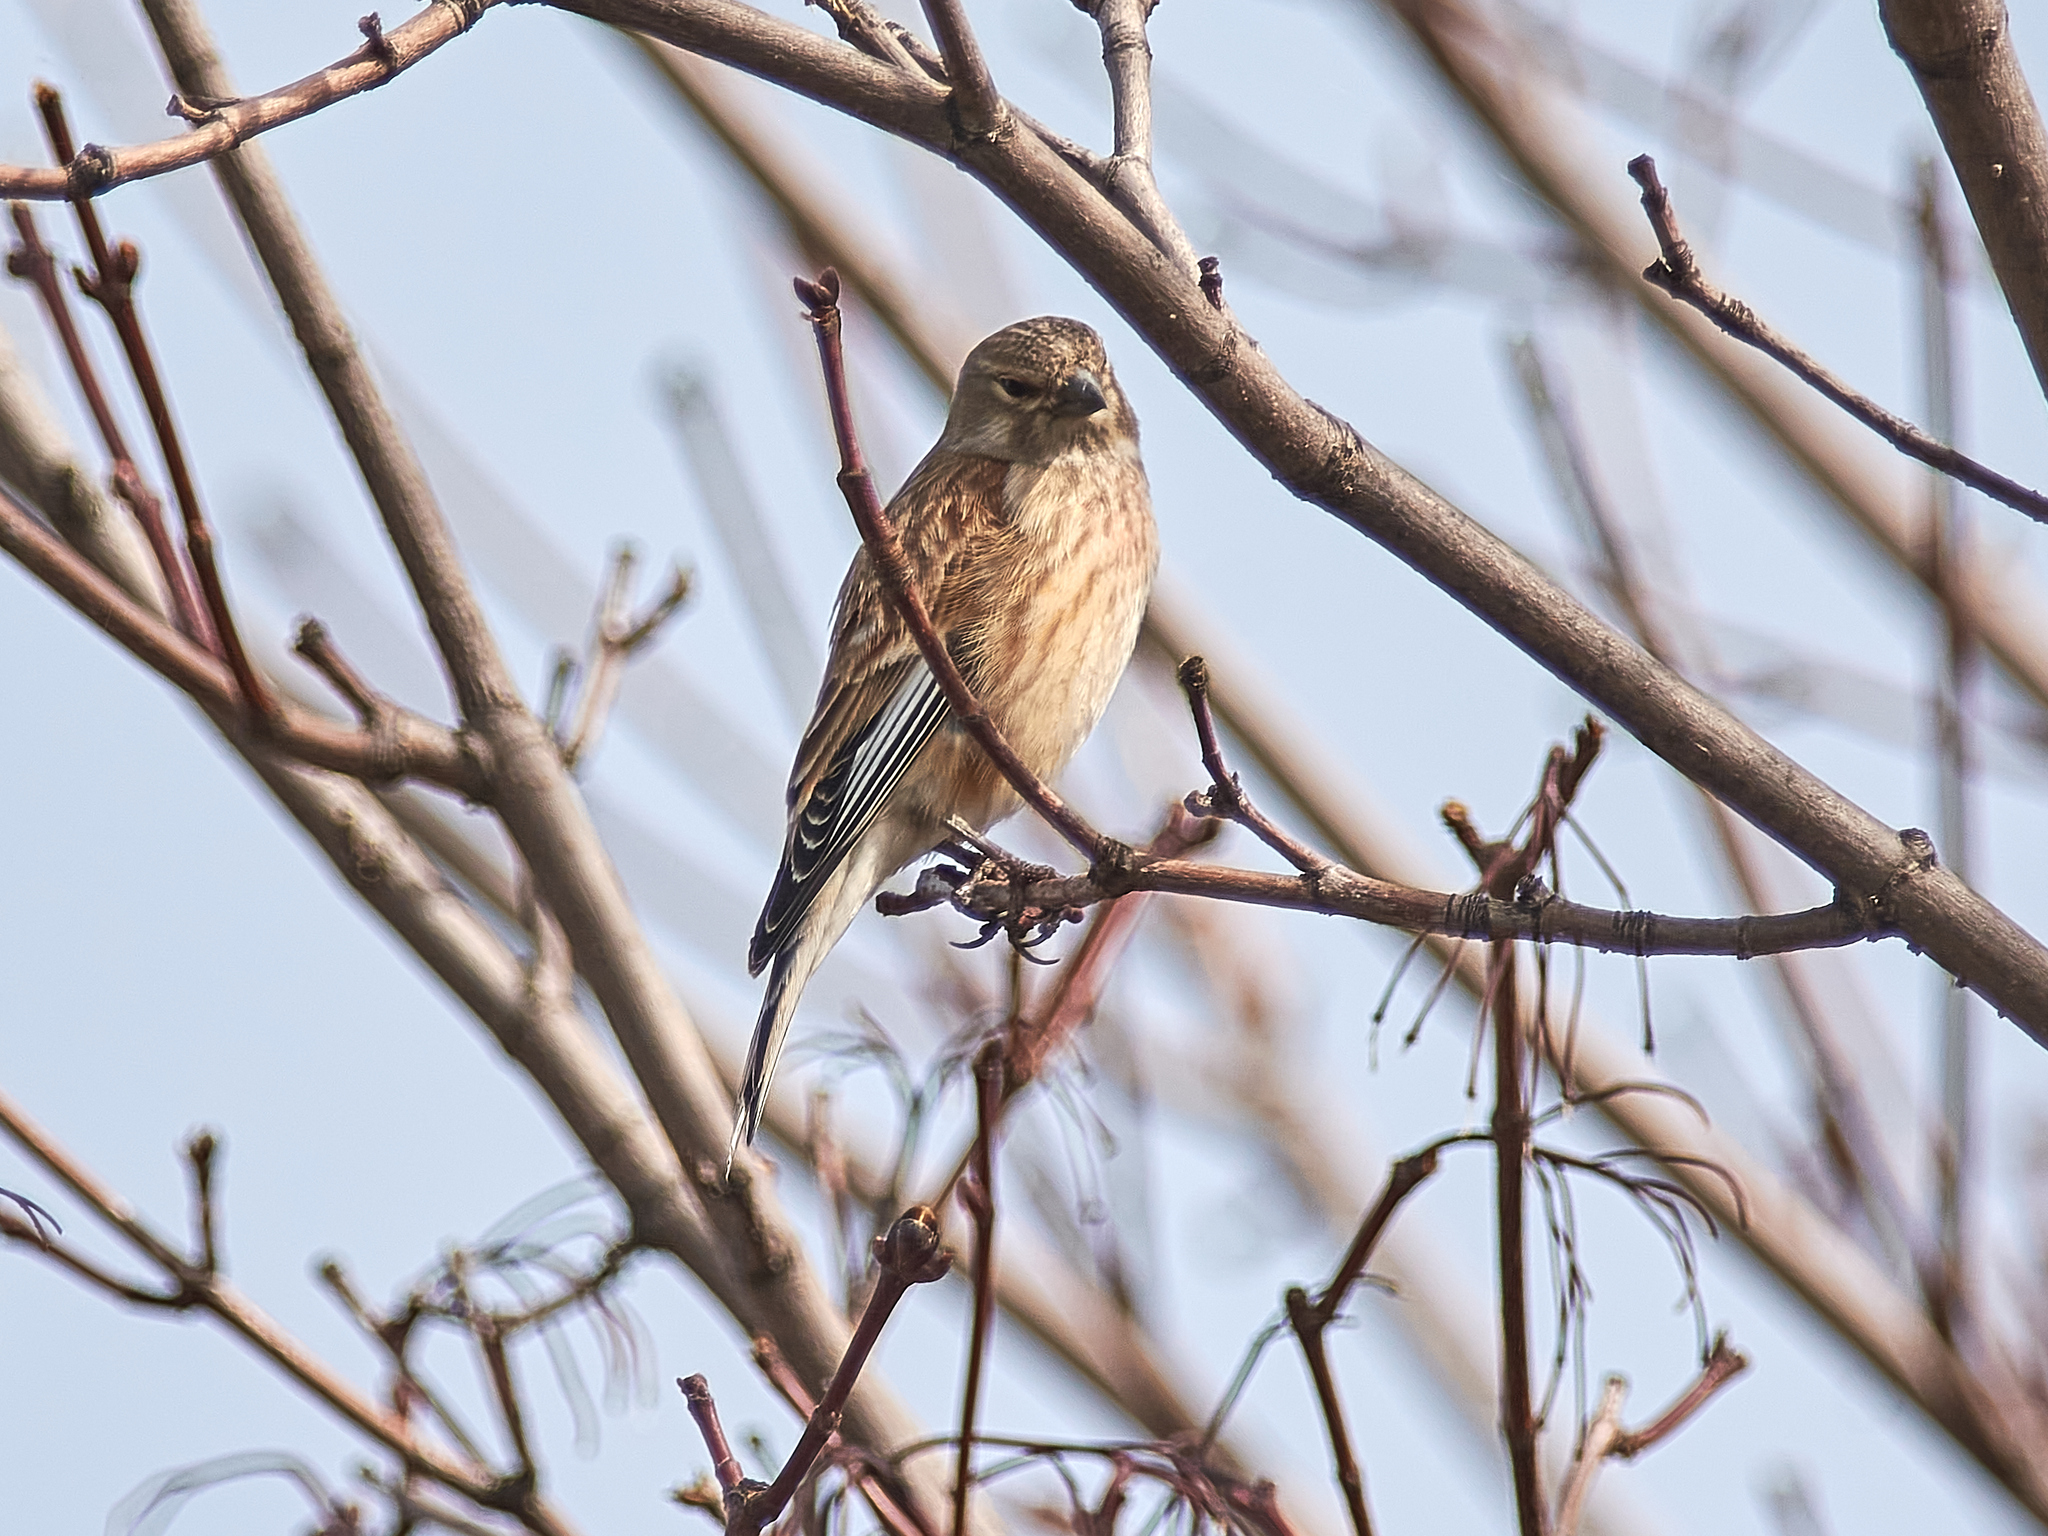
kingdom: Animalia
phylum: Chordata
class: Aves
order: Passeriformes
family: Fringillidae
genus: Linaria
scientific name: Linaria cannabina
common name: Common linnet
